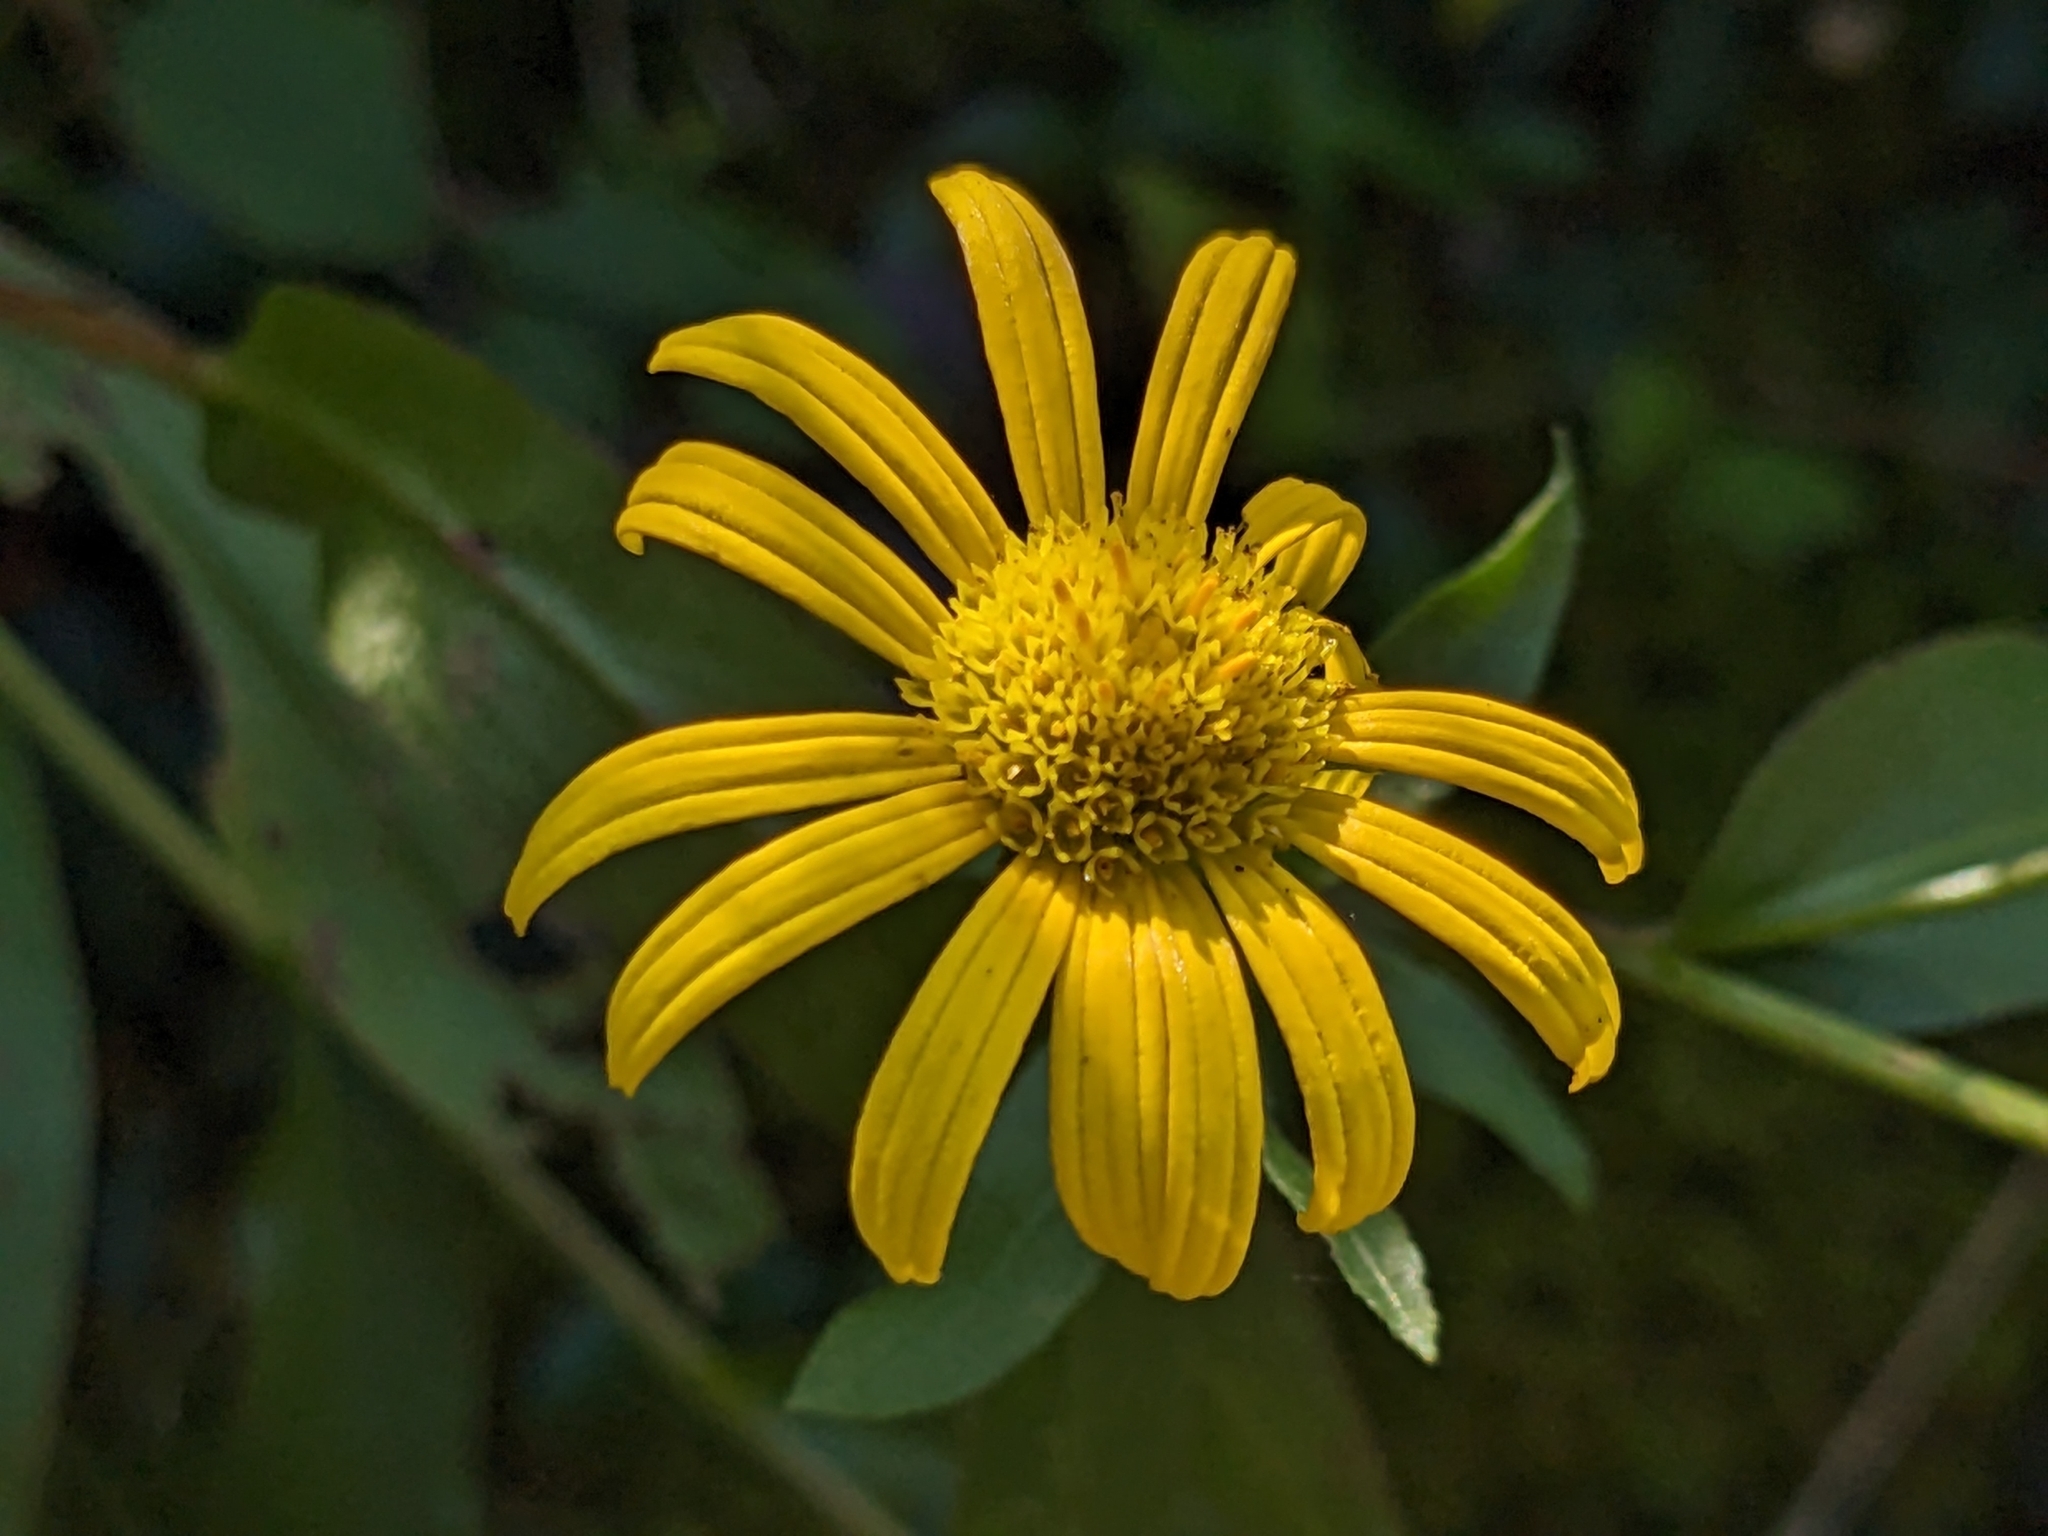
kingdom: Plantae
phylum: Tracheophyta
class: Magnoliopsida
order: Asterales
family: Asteraceae
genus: Buphthalmum
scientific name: Buphthalmum salicifolium
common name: Willow-leaved yellow-oxeye
